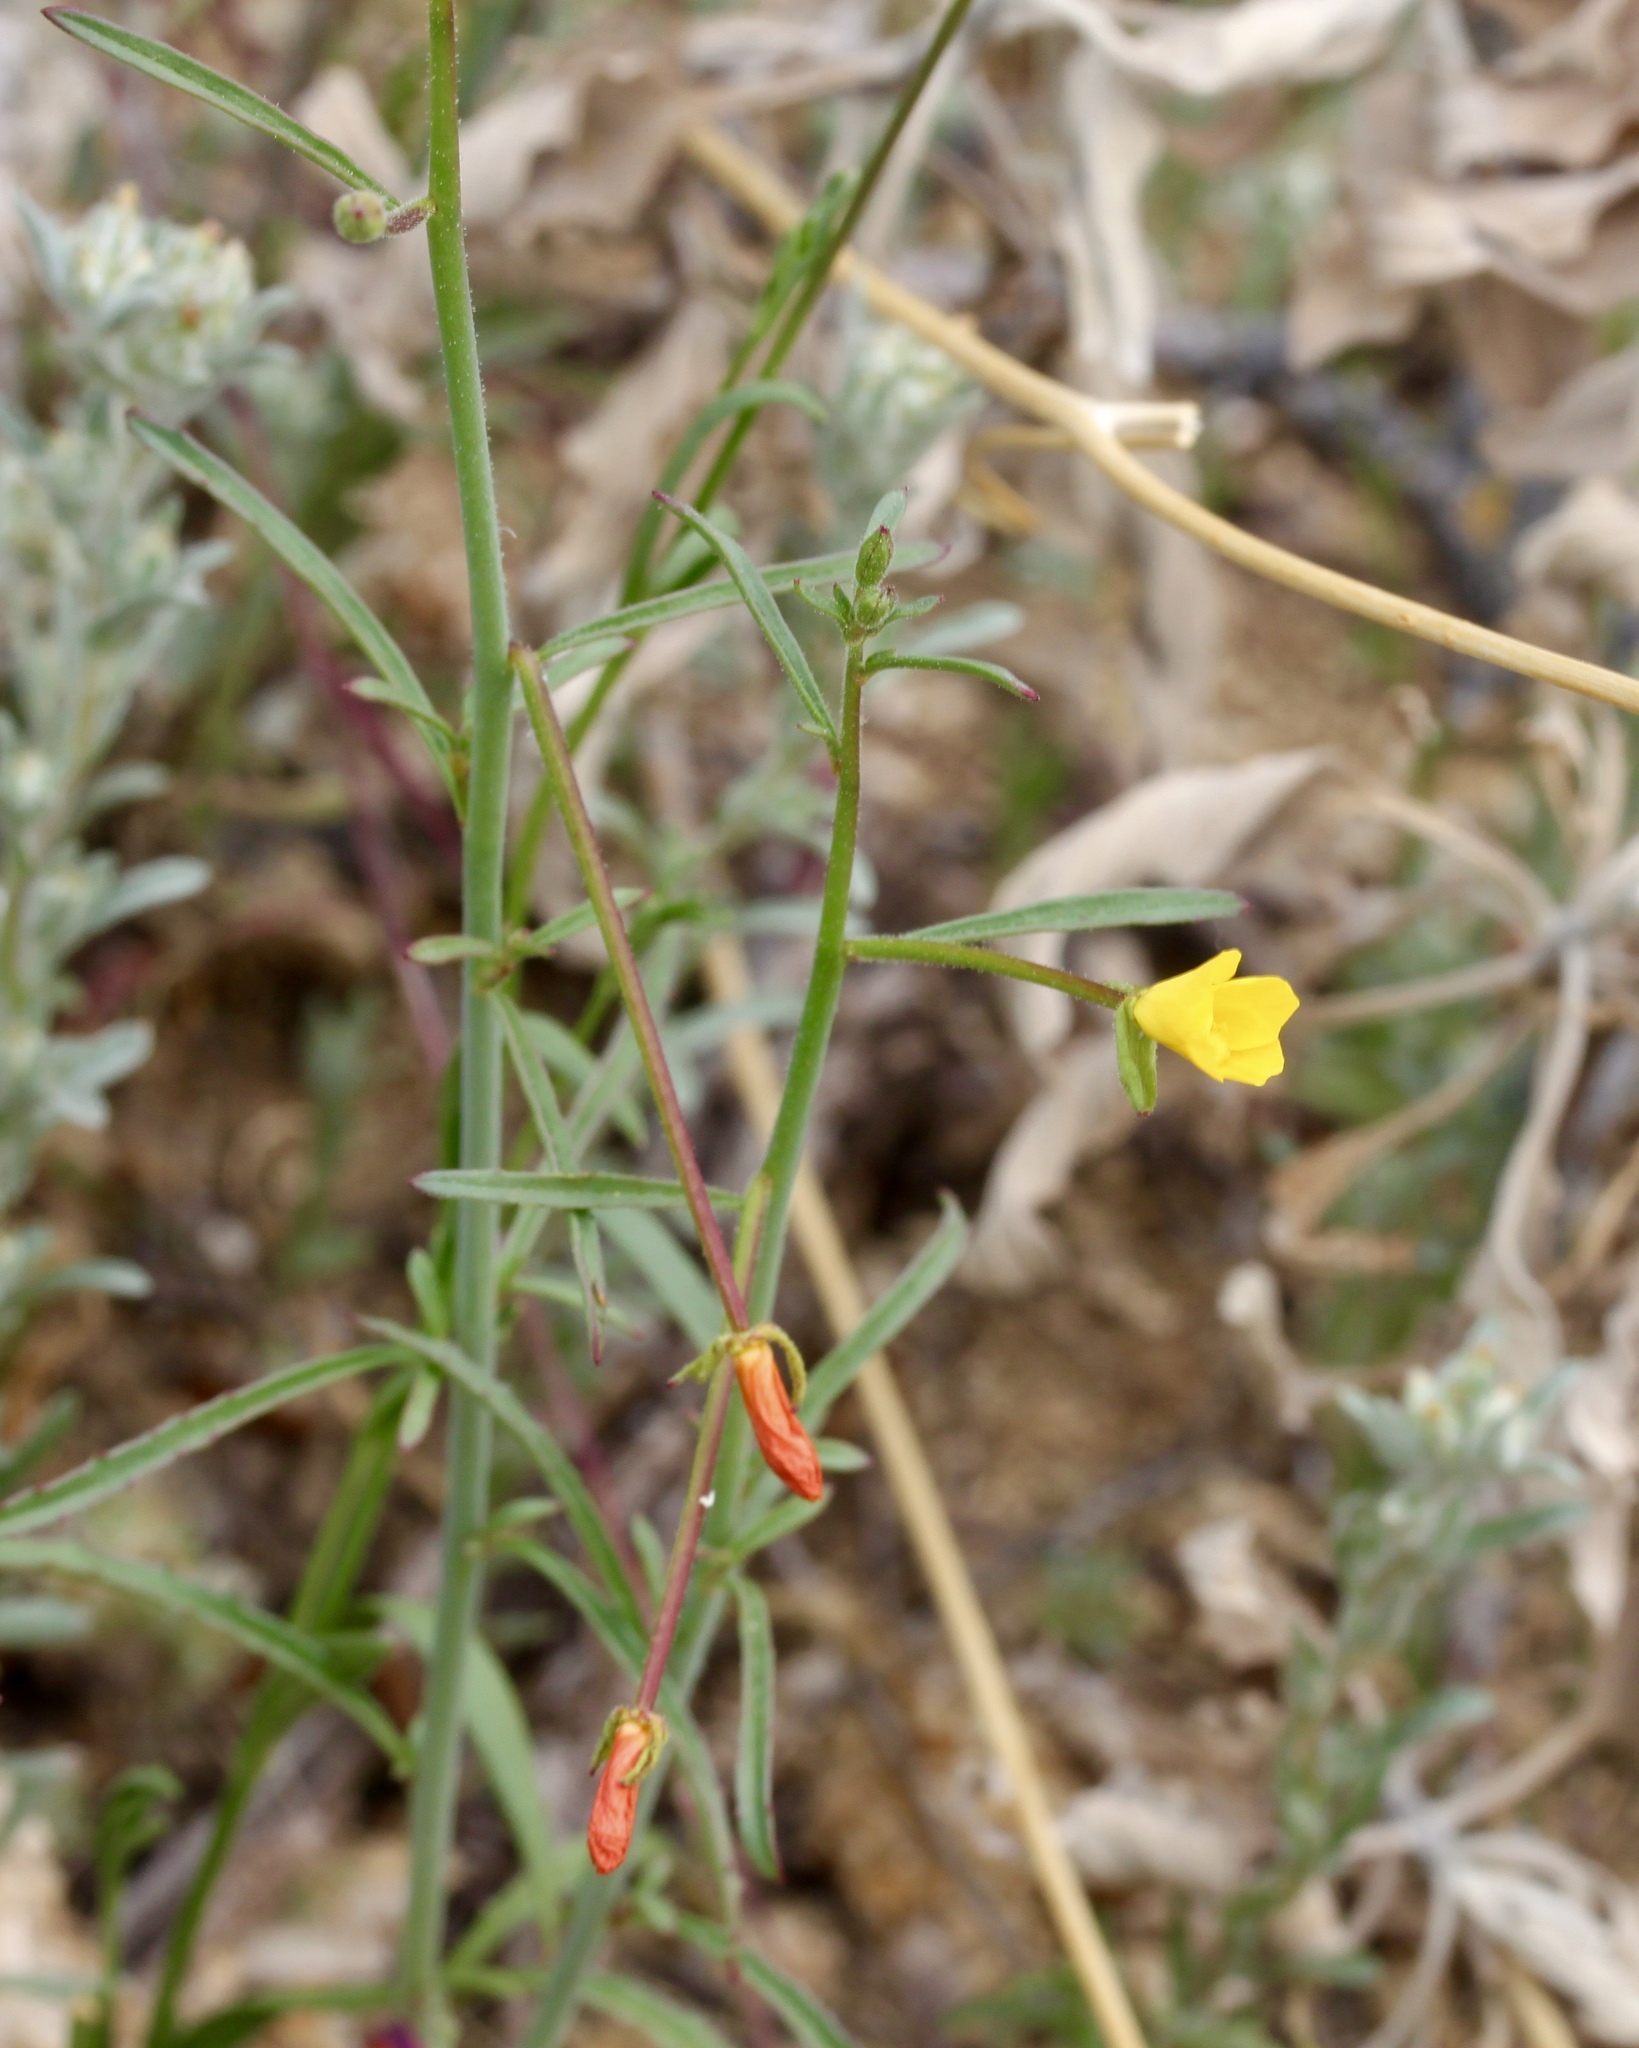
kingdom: Plantae
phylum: Tracheophyta
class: Magnoliopsida
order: Myrtales
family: Onagraceae
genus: Eulobus
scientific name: Eulobus californicus
